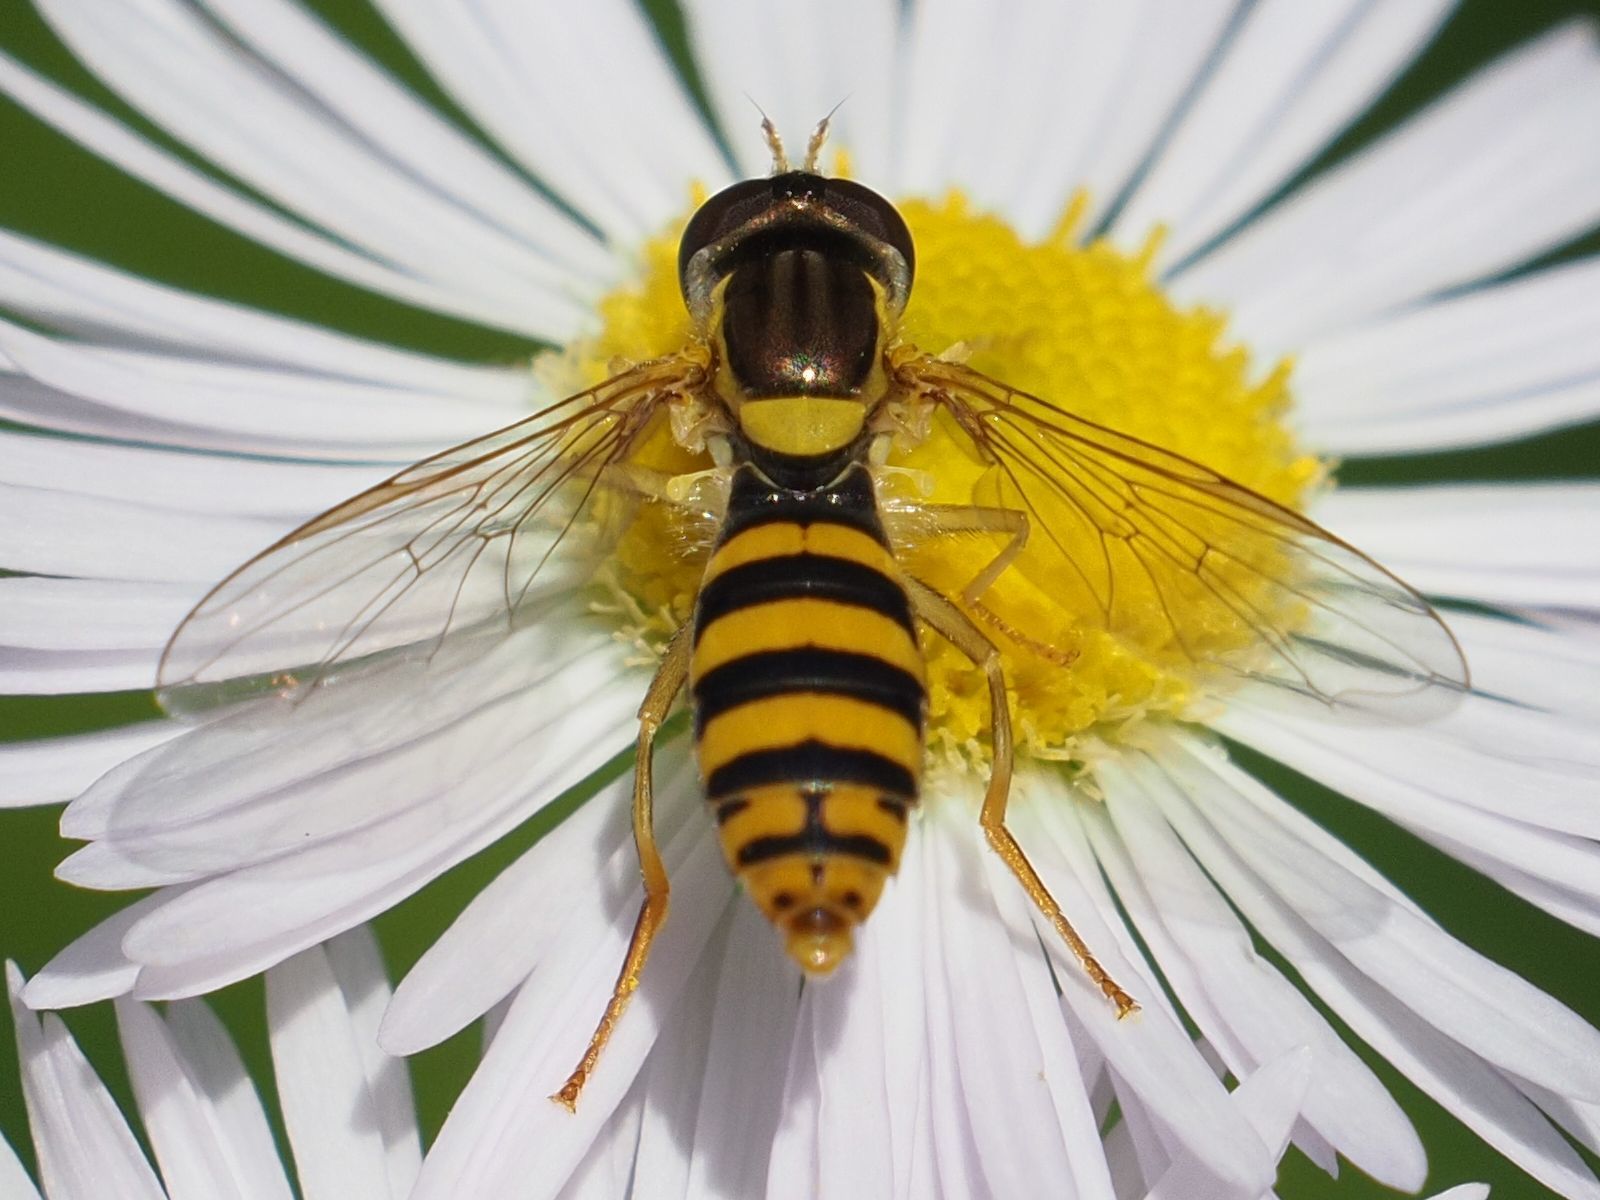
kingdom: Animalia
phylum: Arthropoda
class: Insecta
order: Diptera
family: Syrphidae
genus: Sphaerophoria
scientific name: Sphaerophoria
